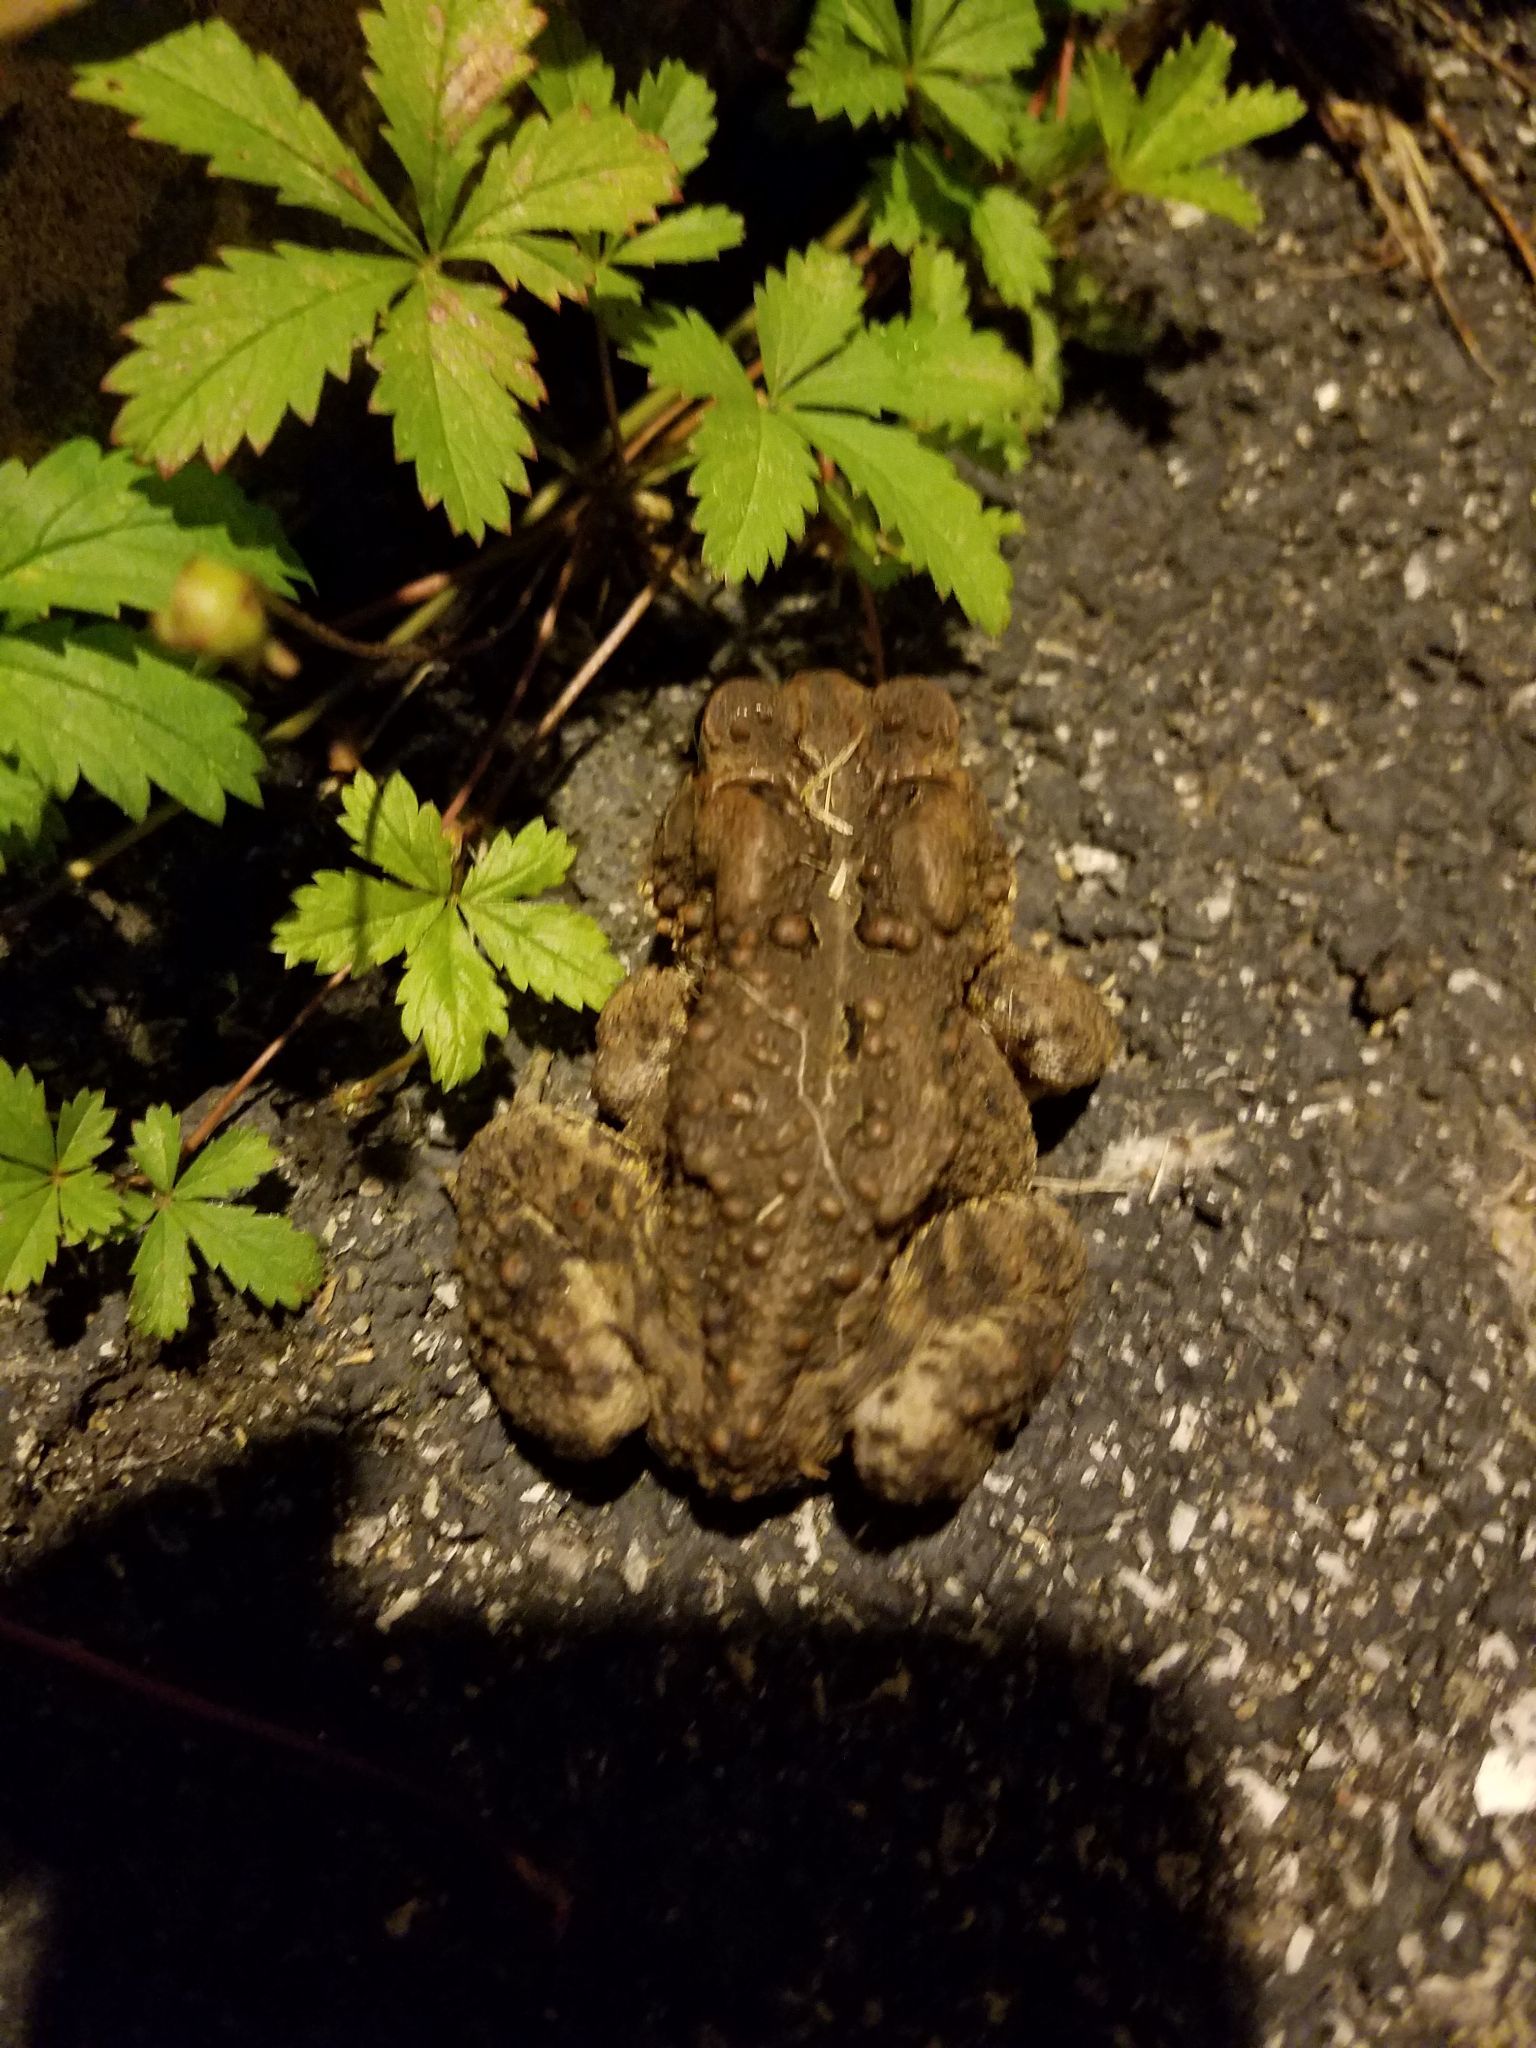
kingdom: Animalia
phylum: Chordata
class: Amphibia
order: Anura
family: Bufonidae
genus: Anaxyrus
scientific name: Anaxyrus americanus
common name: American toad
